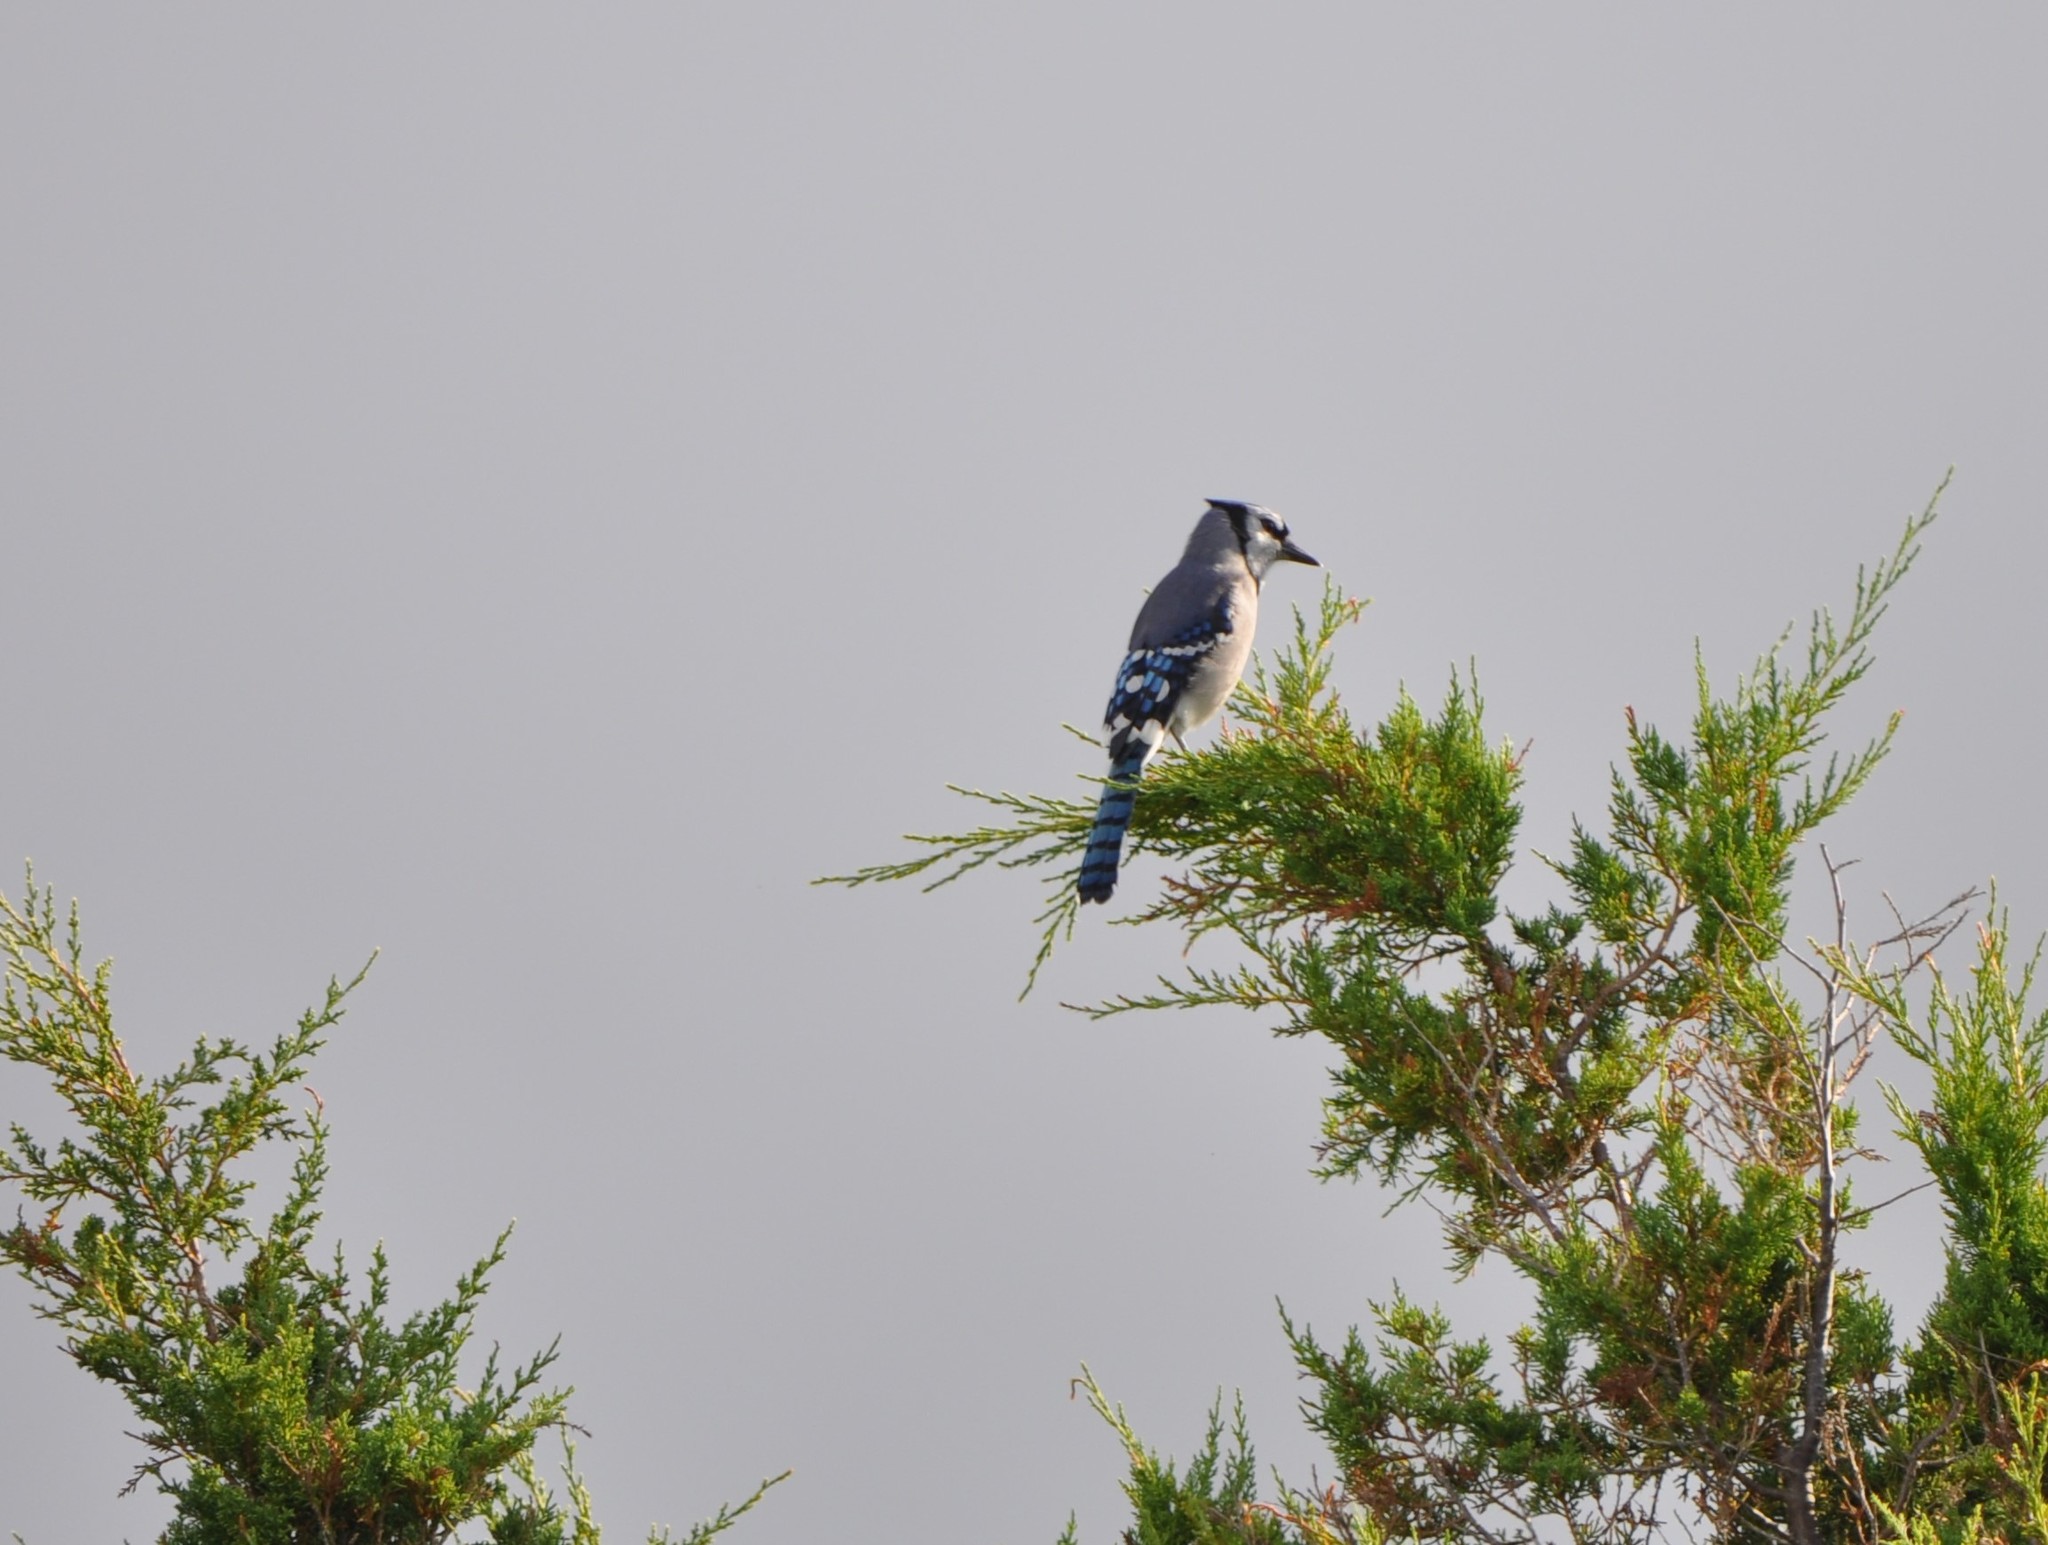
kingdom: Animalia
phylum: Chordata
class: Aves
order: Passeriformes
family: Corvidae
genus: Cyanocitta
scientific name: Cyanocitta cristata
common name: Blue jay
